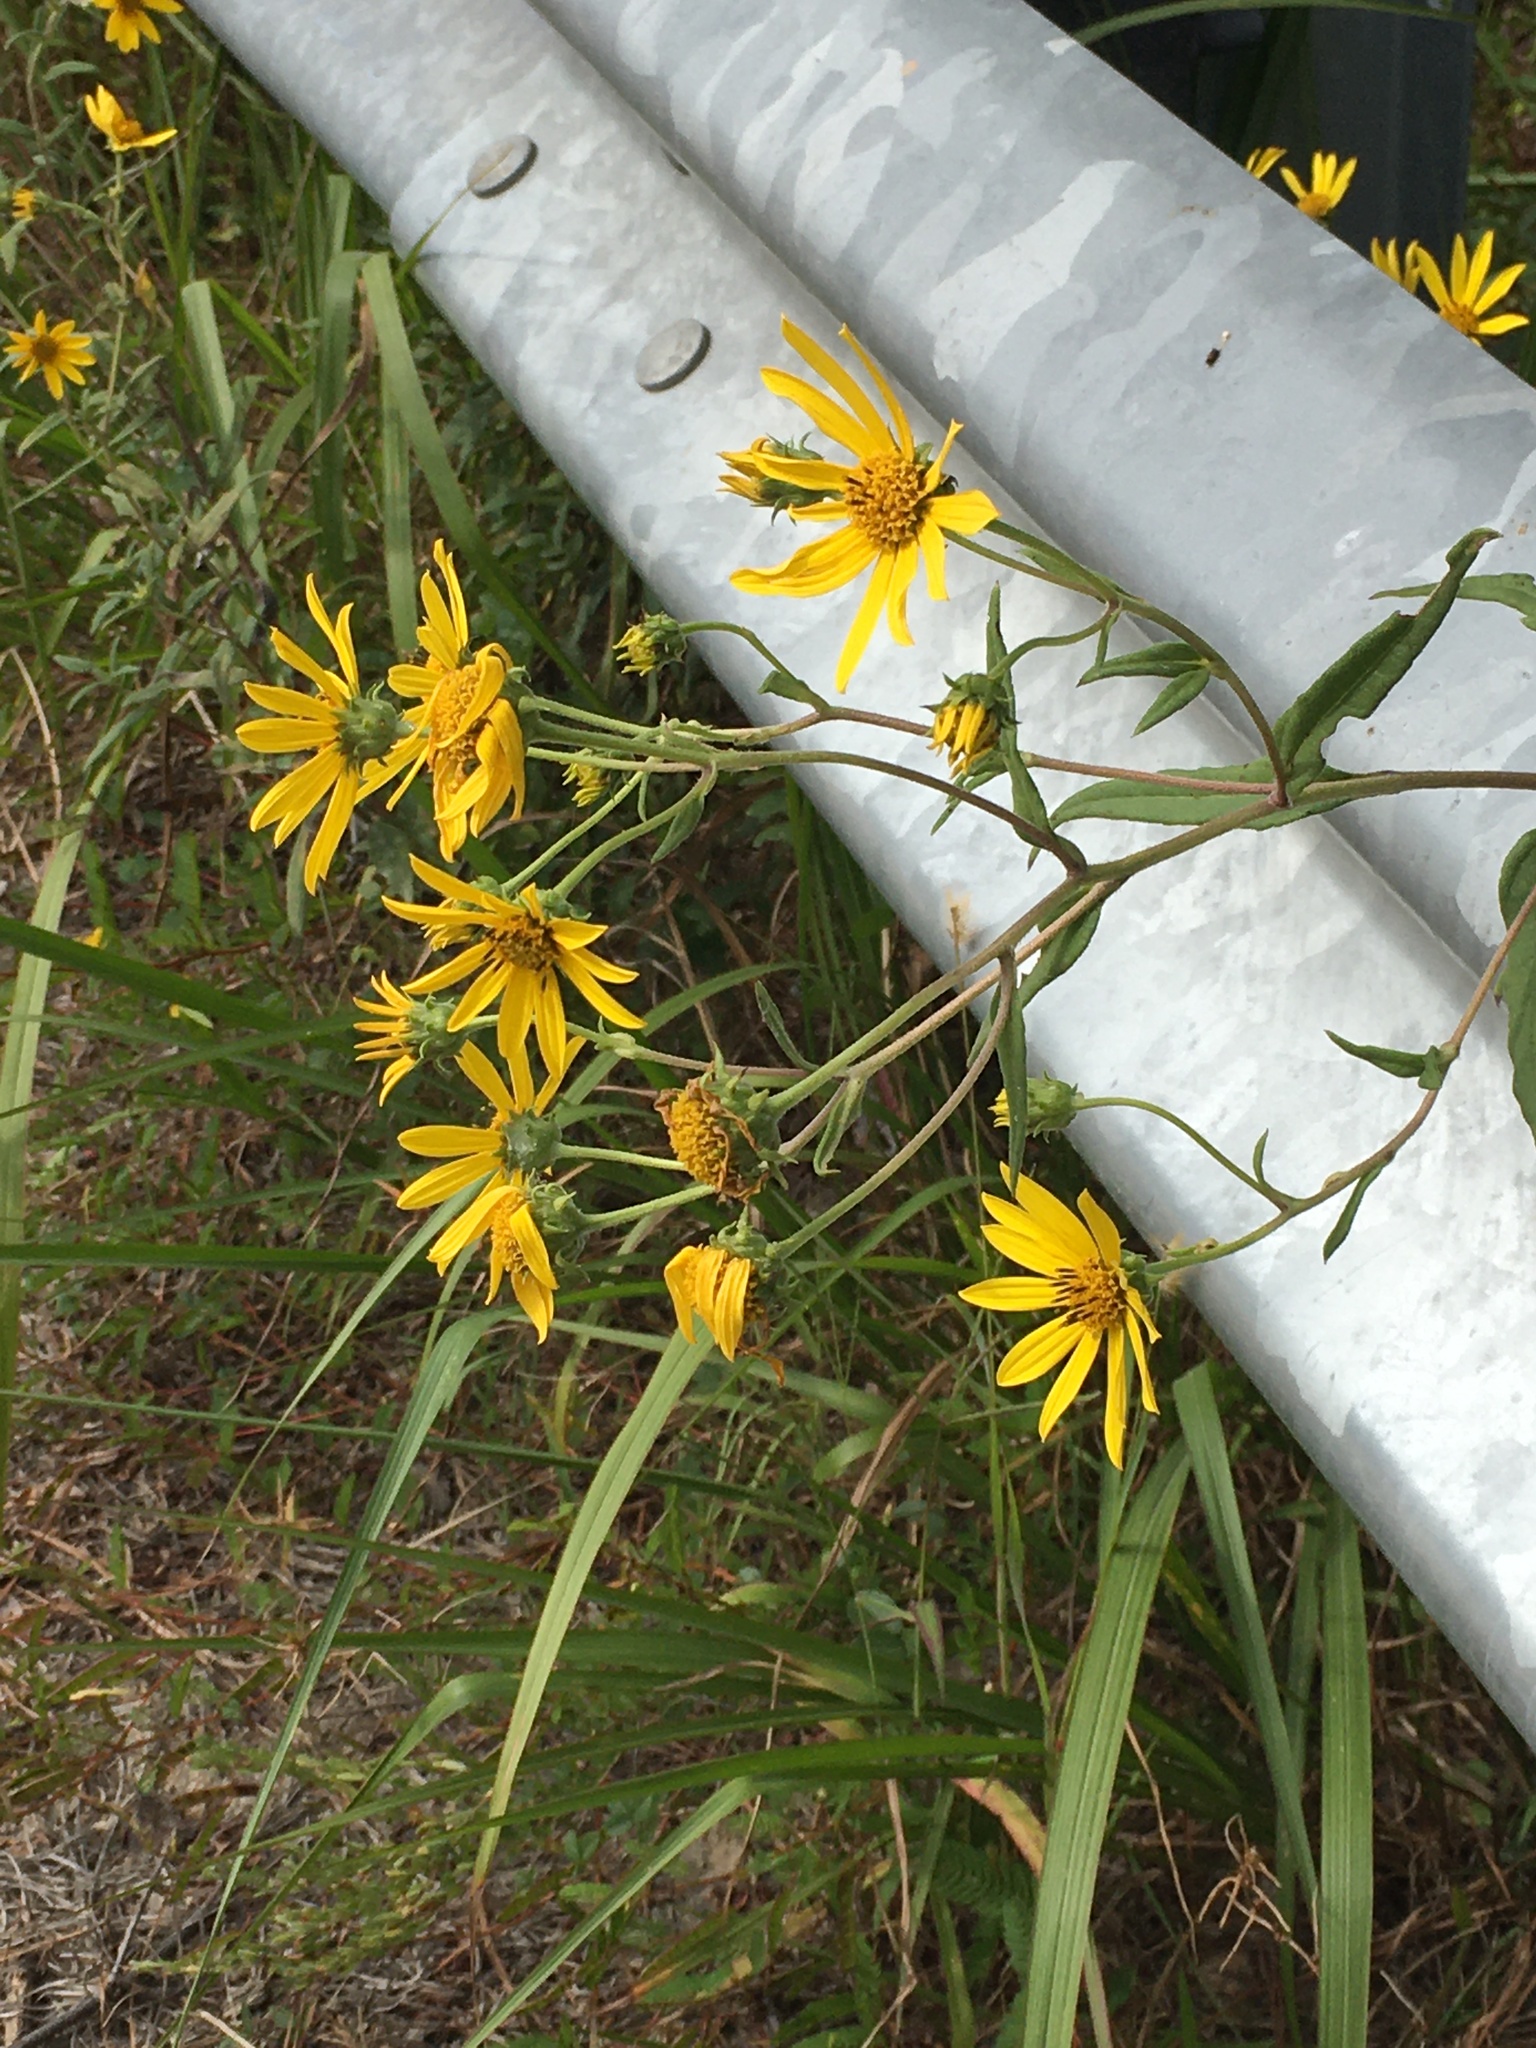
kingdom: Plantae
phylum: Tracheophyta
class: Magnoliopsida
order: Asterales
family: Asteraceae
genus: Helianthus
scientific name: Helianthus schweinitzii
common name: Schweinitz's sunflower
